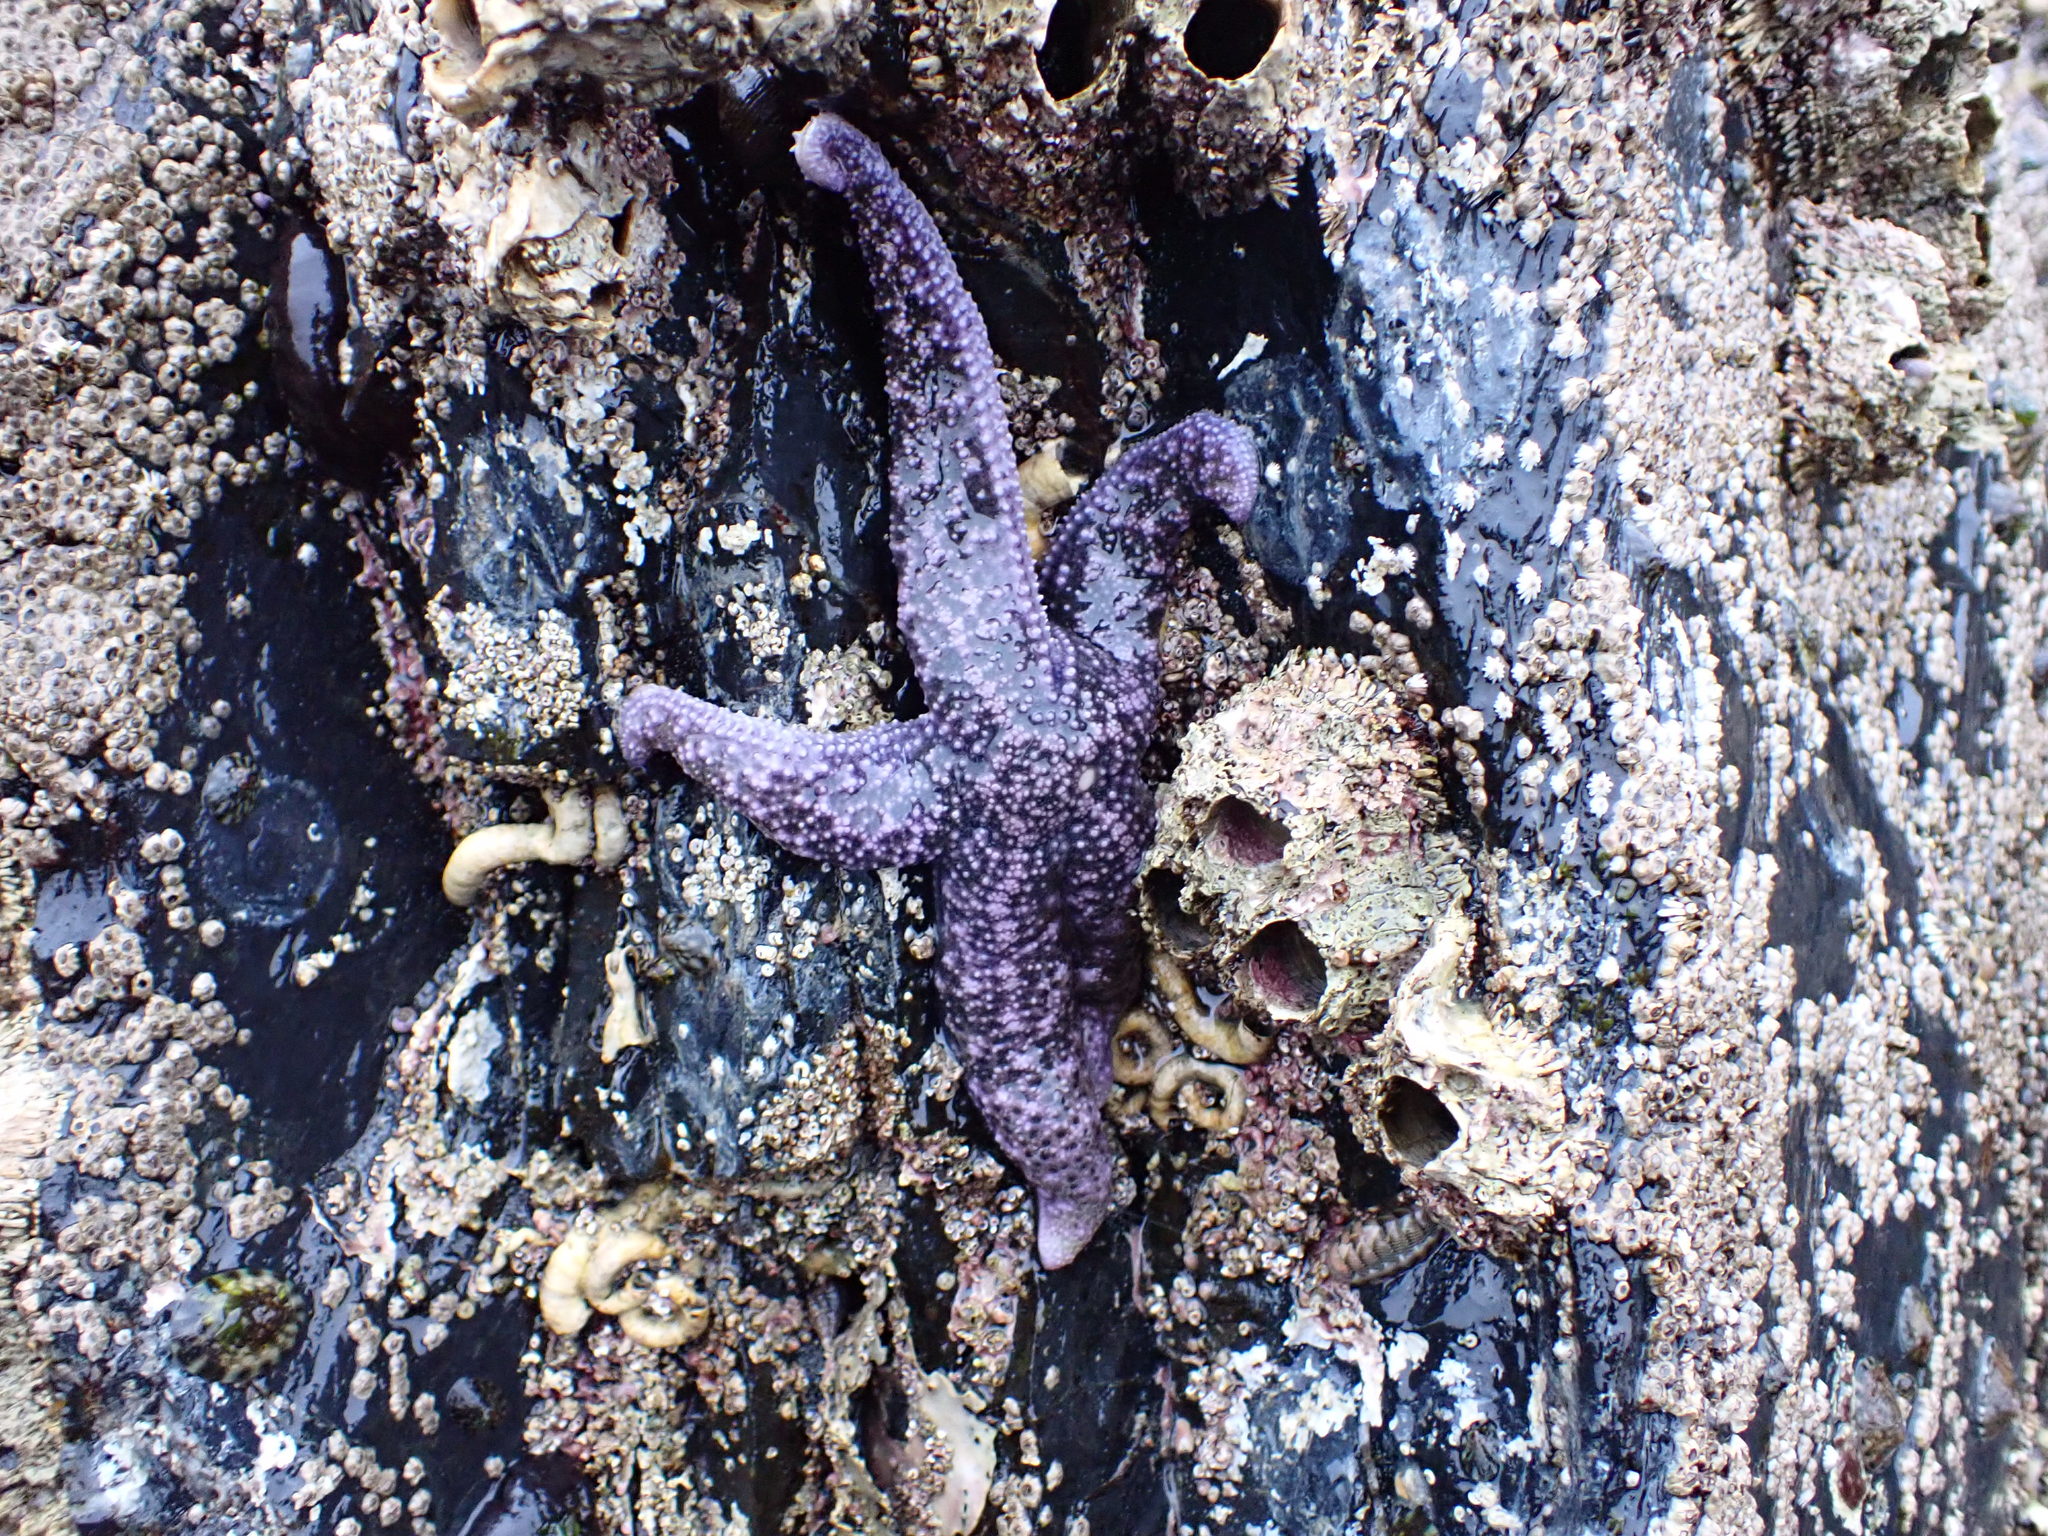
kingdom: Animalia
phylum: Echinodermata
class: Asteroidea
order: Forcipulatida
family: Asteriidae
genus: Evasterias
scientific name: Evasterias troschelii
